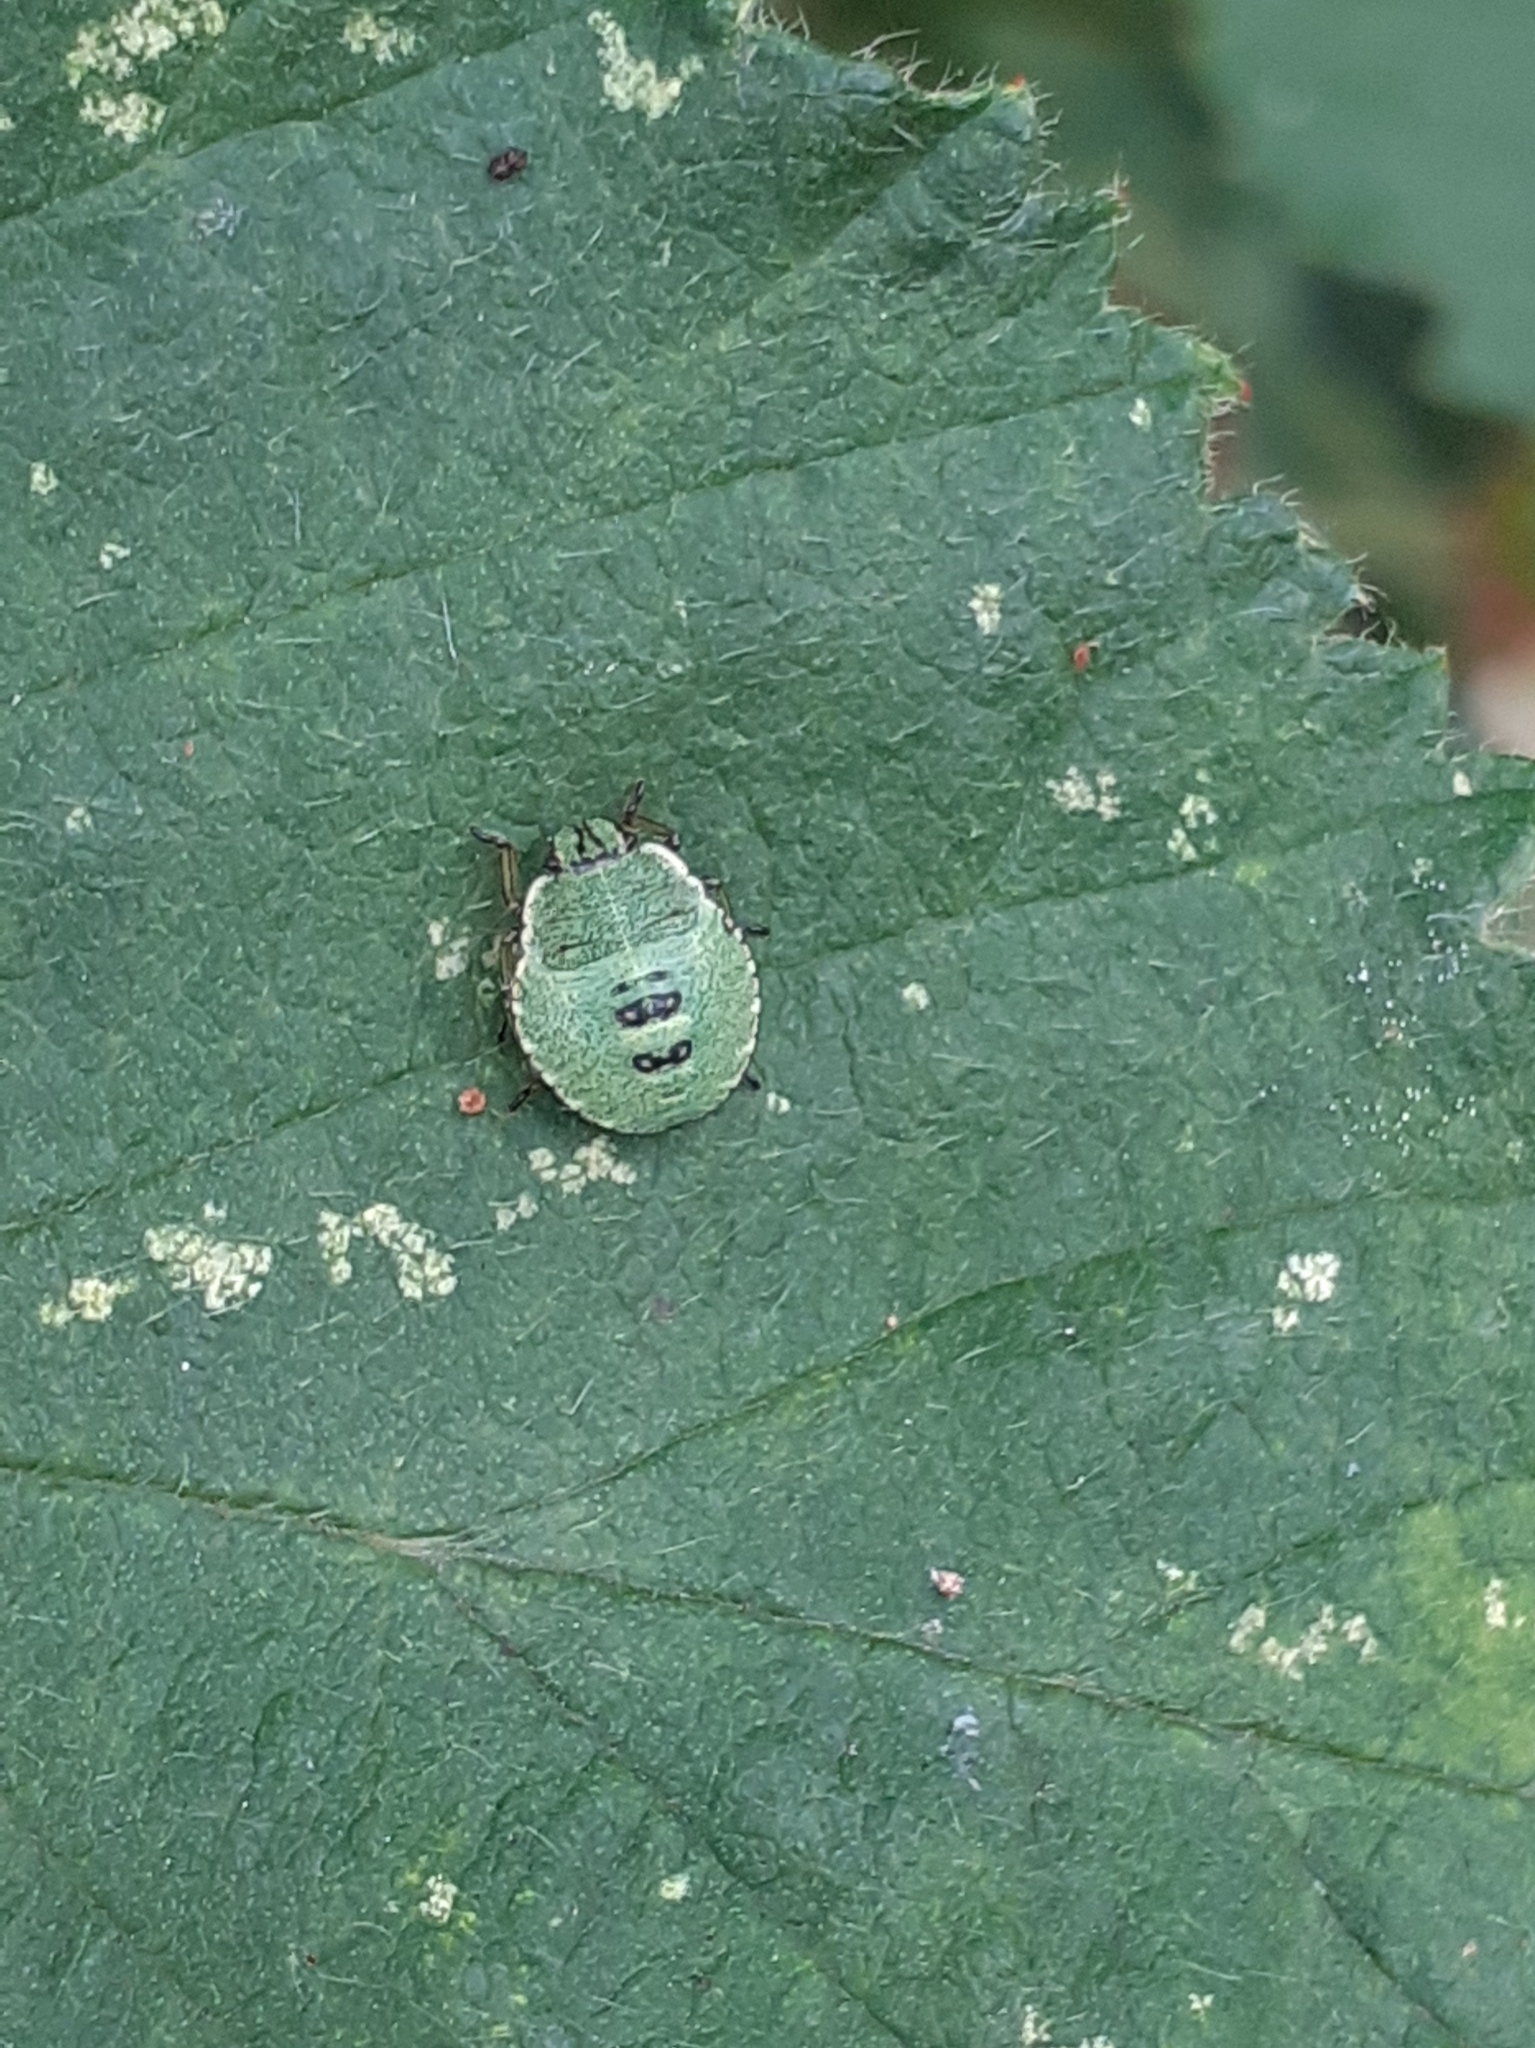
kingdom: Animalia
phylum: Arthropoda
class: Insecta
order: Hemiptera
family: Pentatomidae
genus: Palomena
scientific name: Palomena prasina
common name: Green shieldbug
